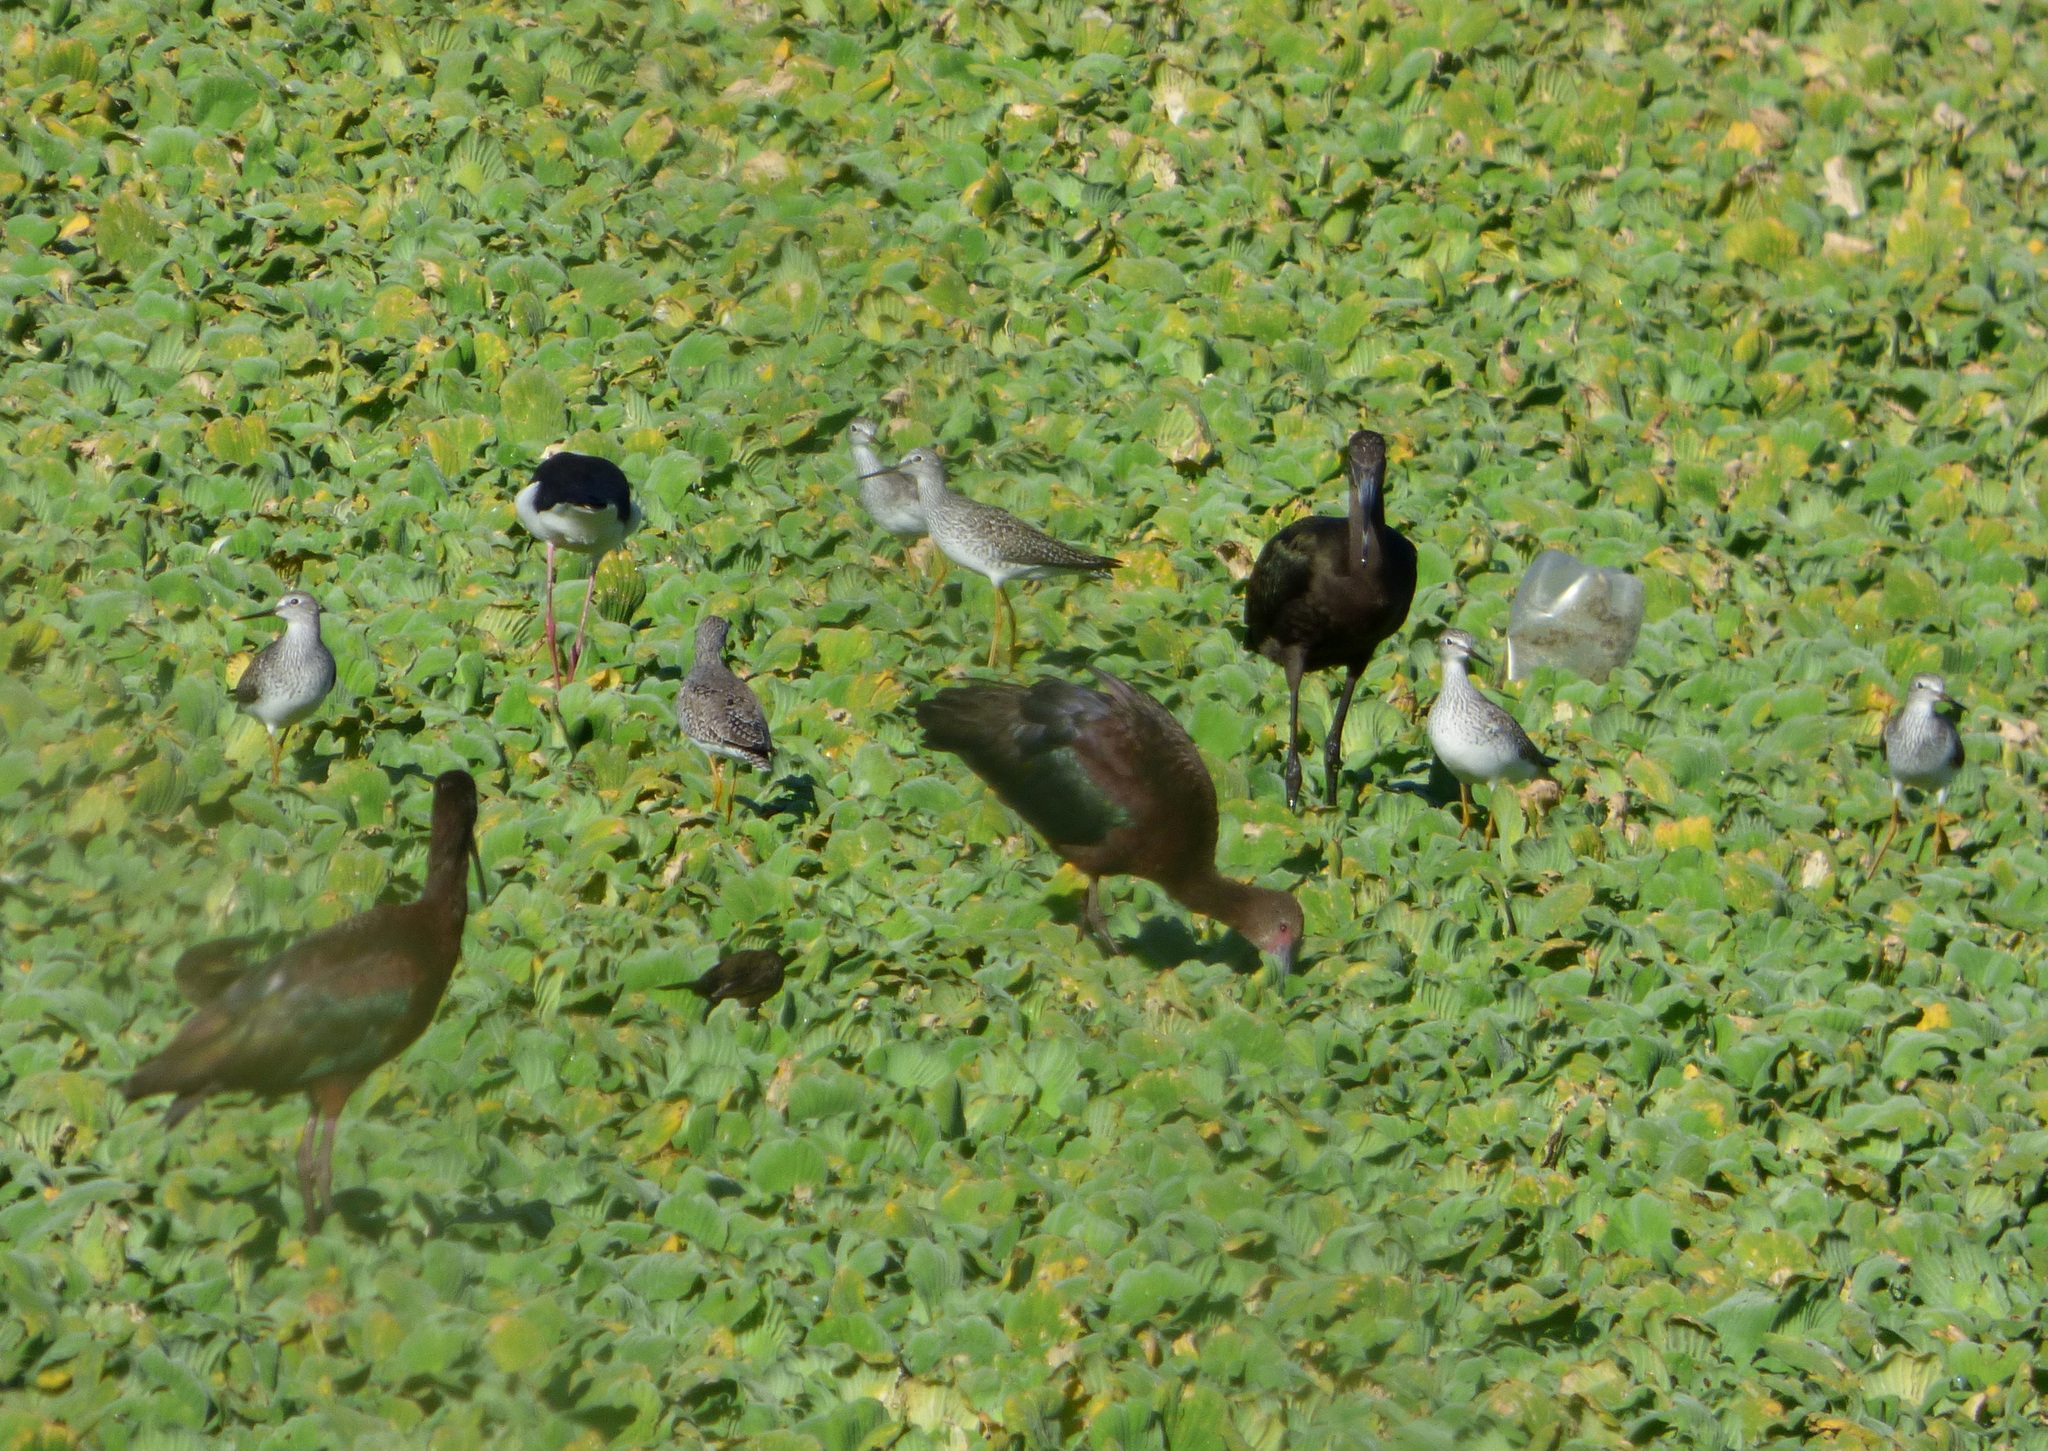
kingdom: Animalia
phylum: Chordata
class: Aves
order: Charadriiformes
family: Scolopacidae
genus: Tringa
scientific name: Tringa flavipes
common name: Lesser yellowlegs
